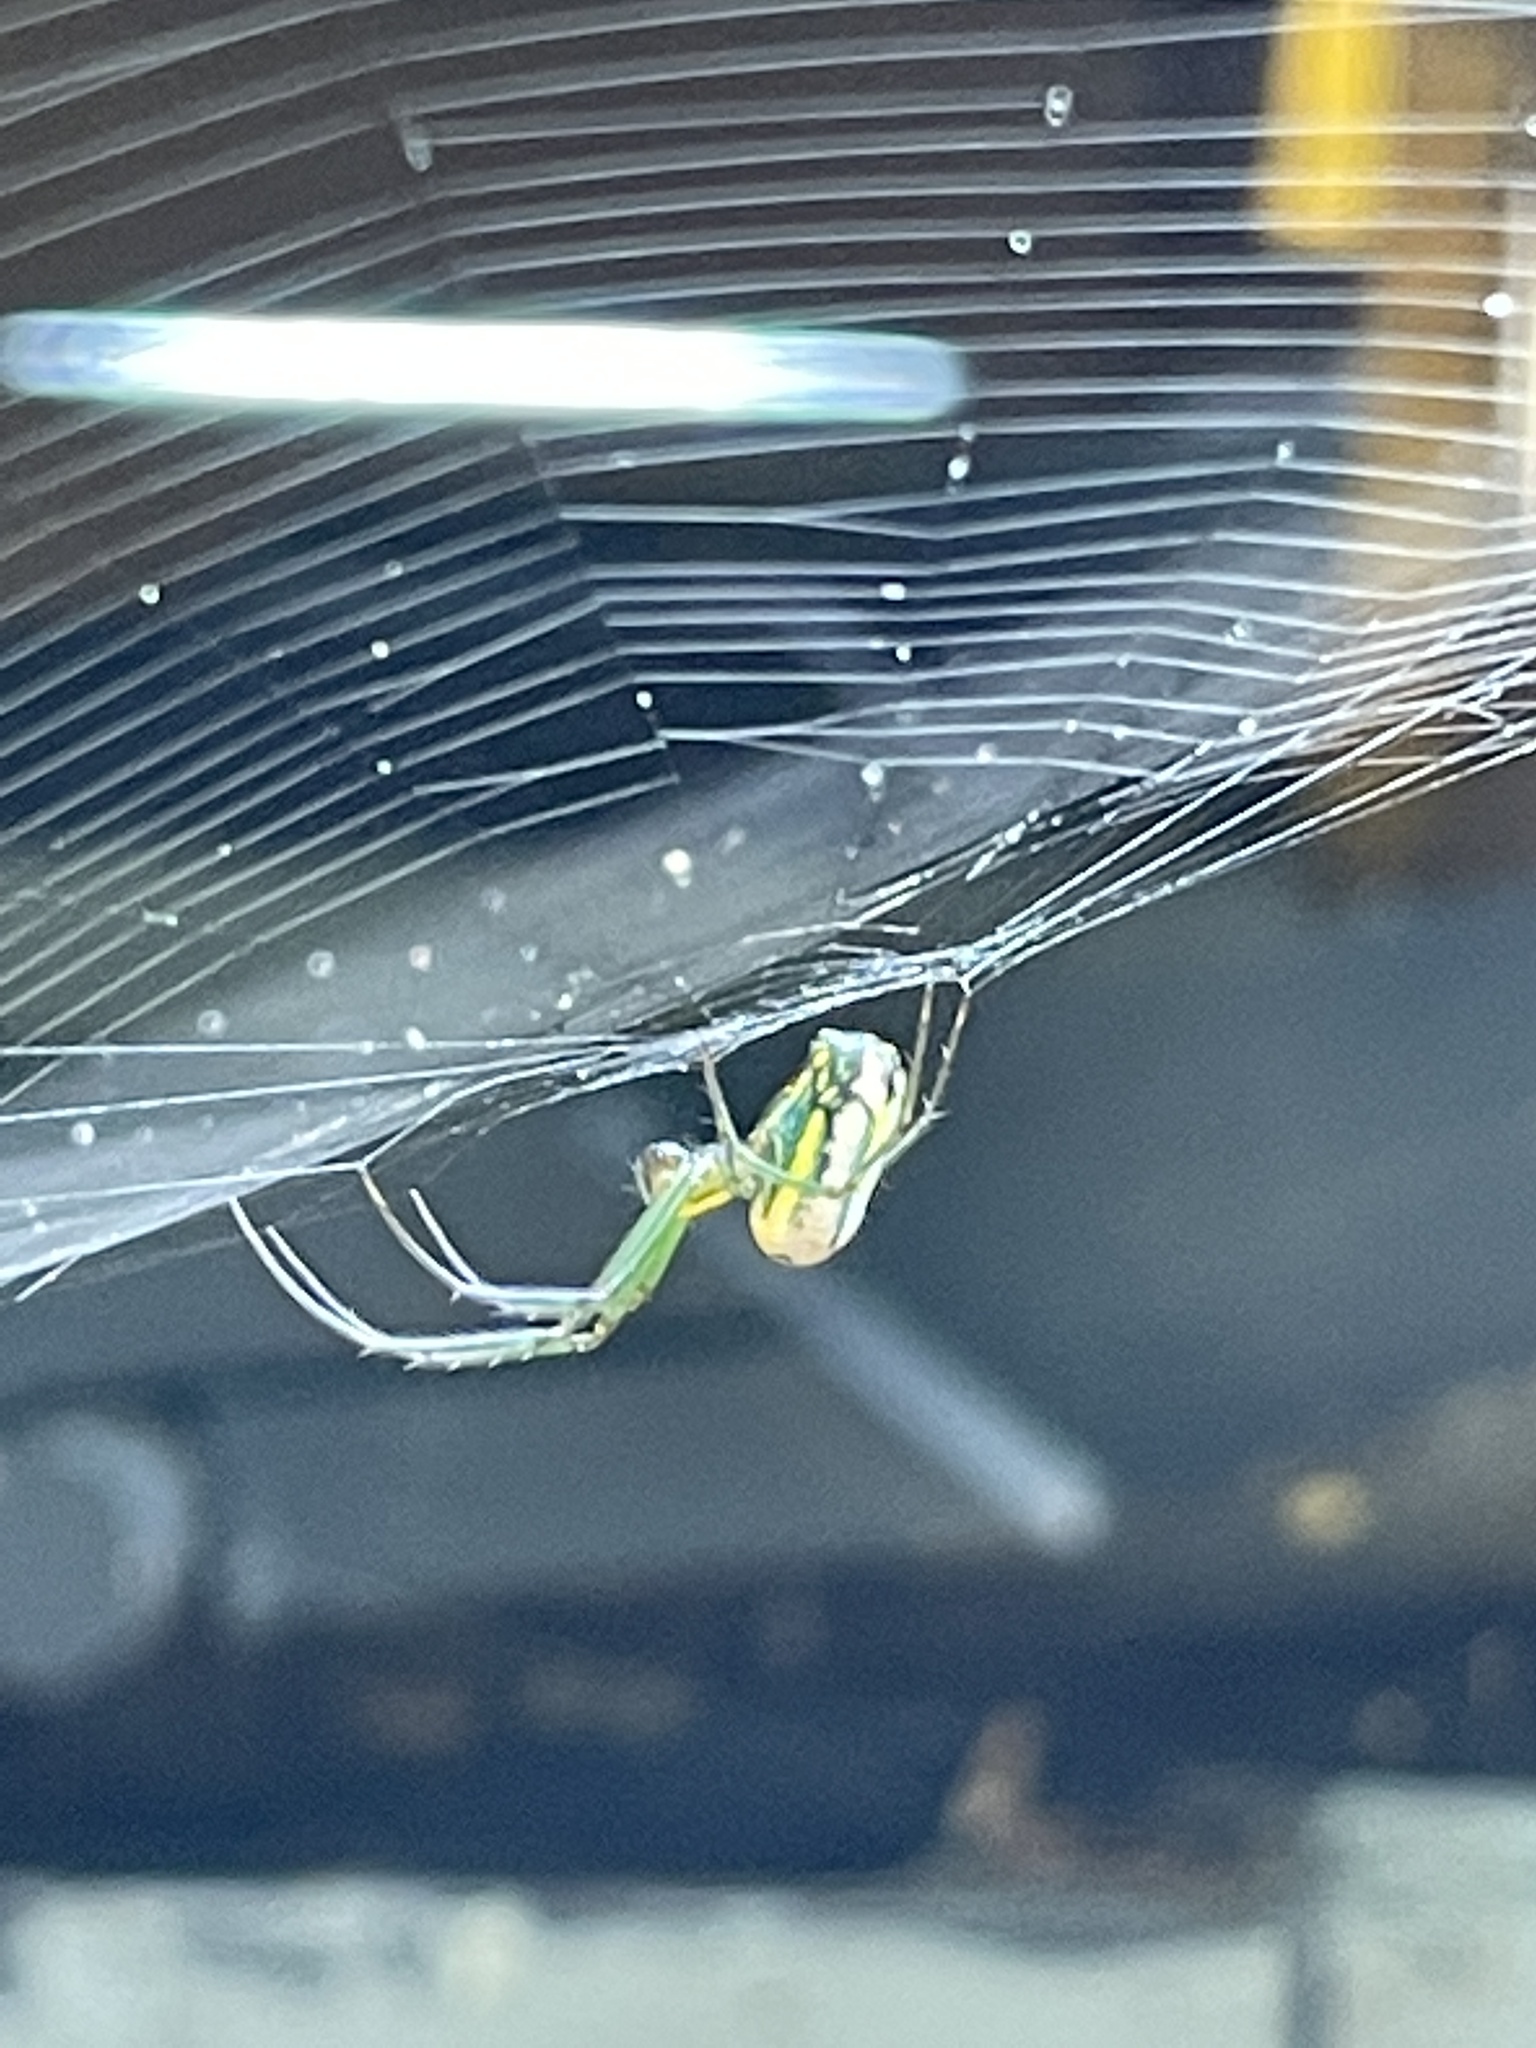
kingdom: Animalia
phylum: Arthropoda
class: Arachnida
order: Araneae
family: Tetragnathidae
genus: Leucauge
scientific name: Leucauge venusta
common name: Longjawed orb weavers
